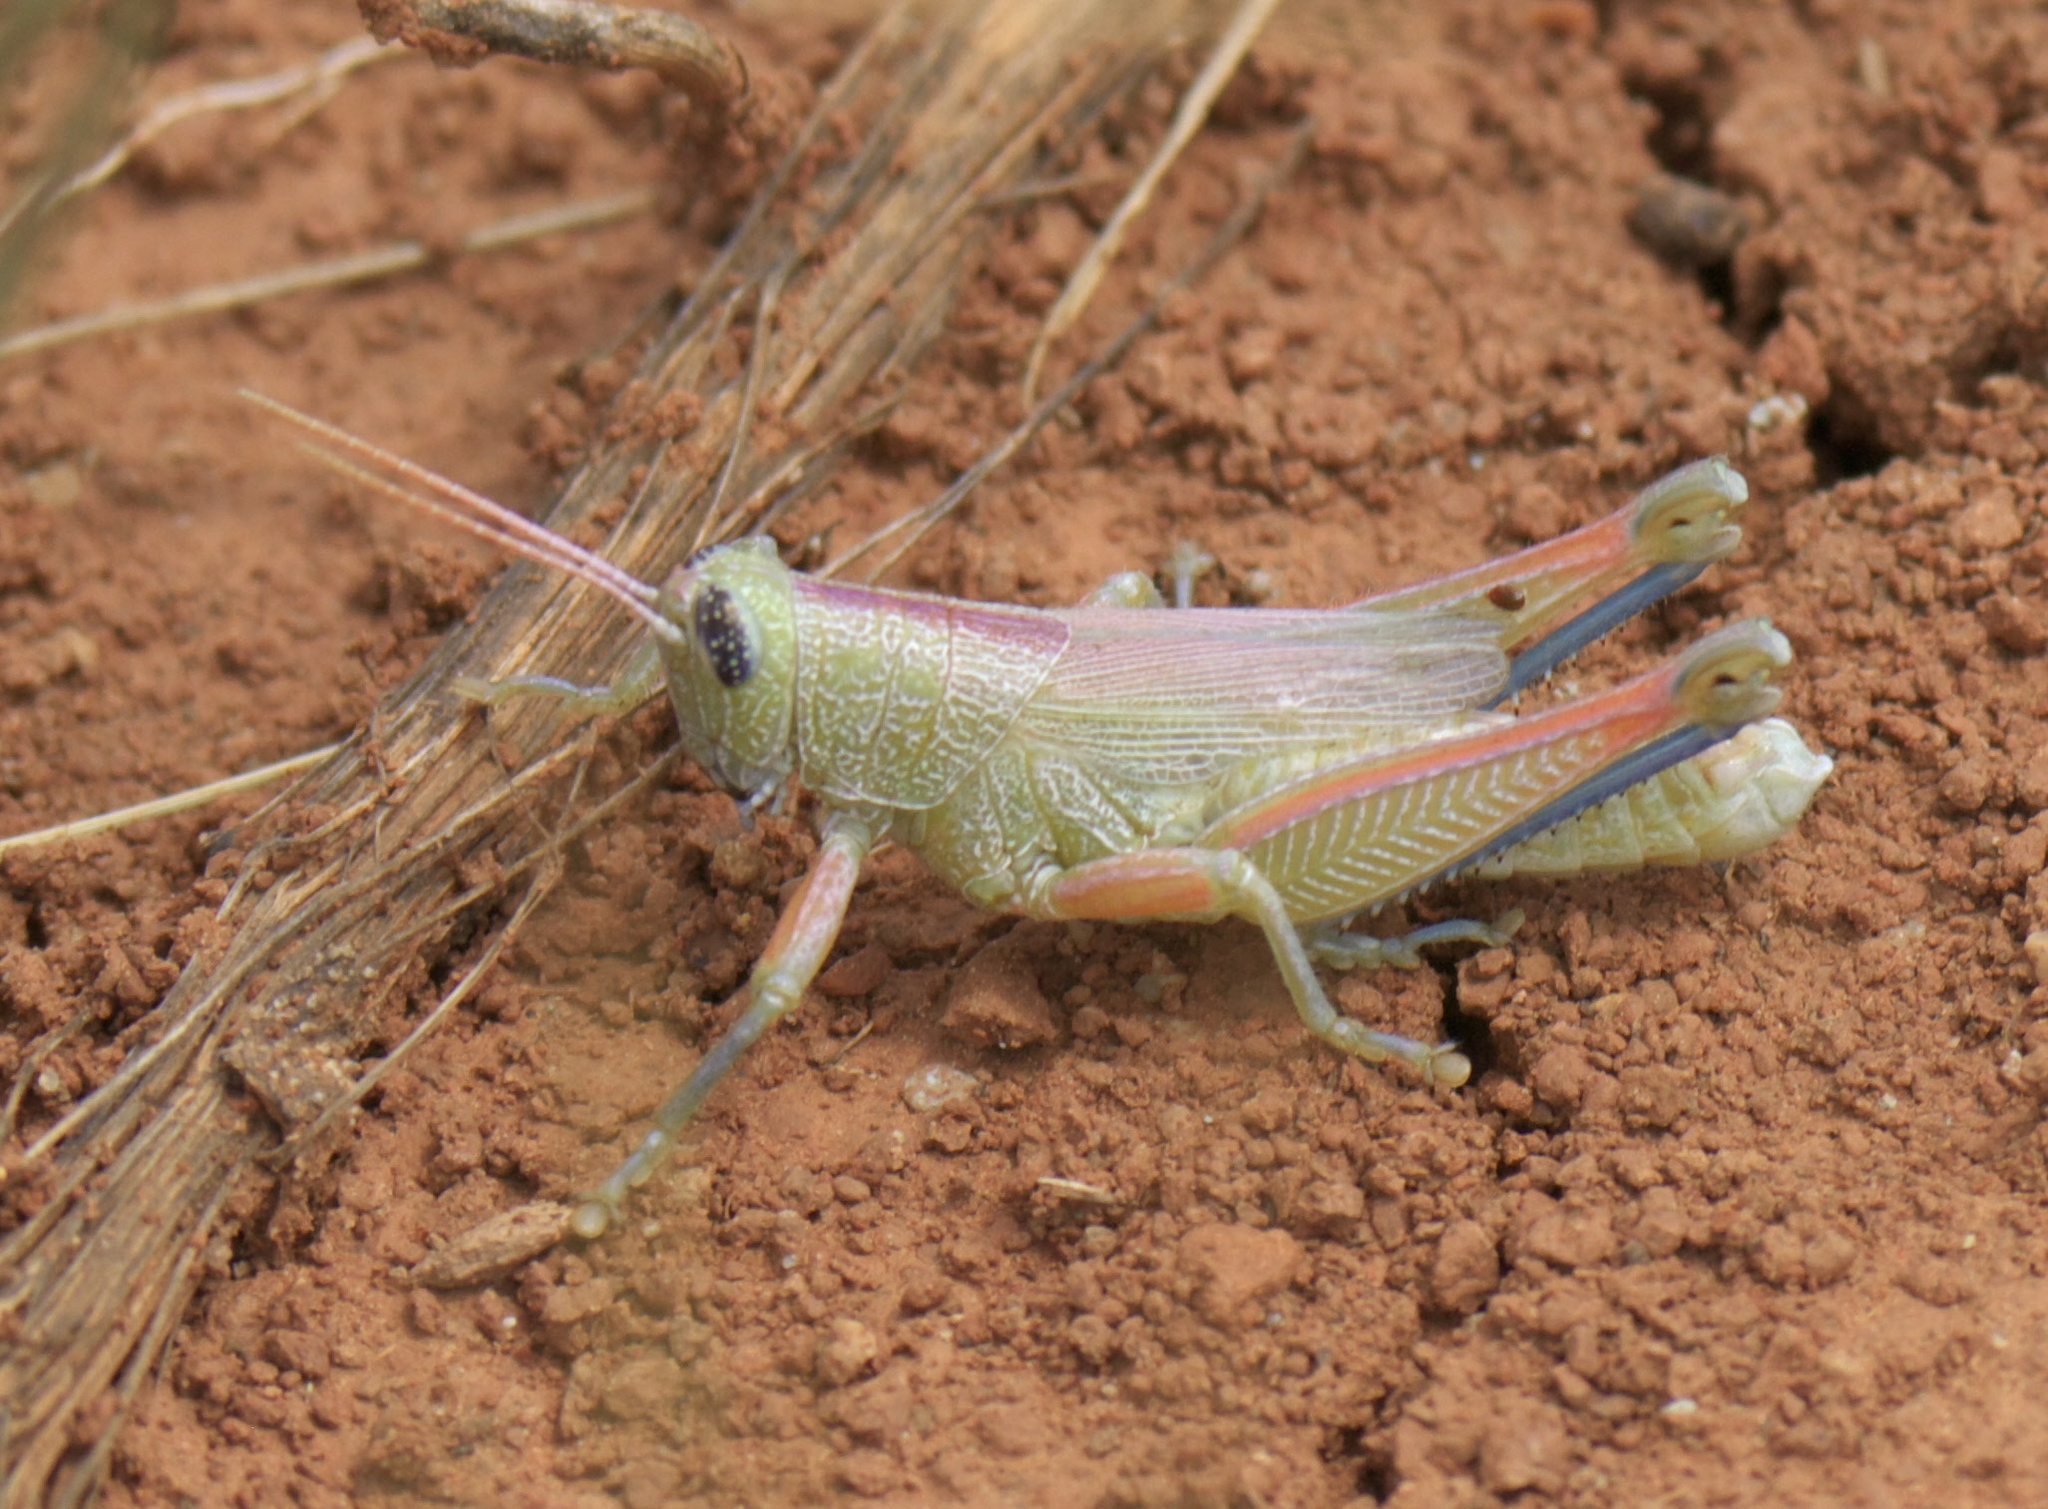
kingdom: Animalia
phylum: Arthropoda
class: Insecta
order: Orthoptera
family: Acrididae
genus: Hesperotettix
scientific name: Hesperotettix speciosus
